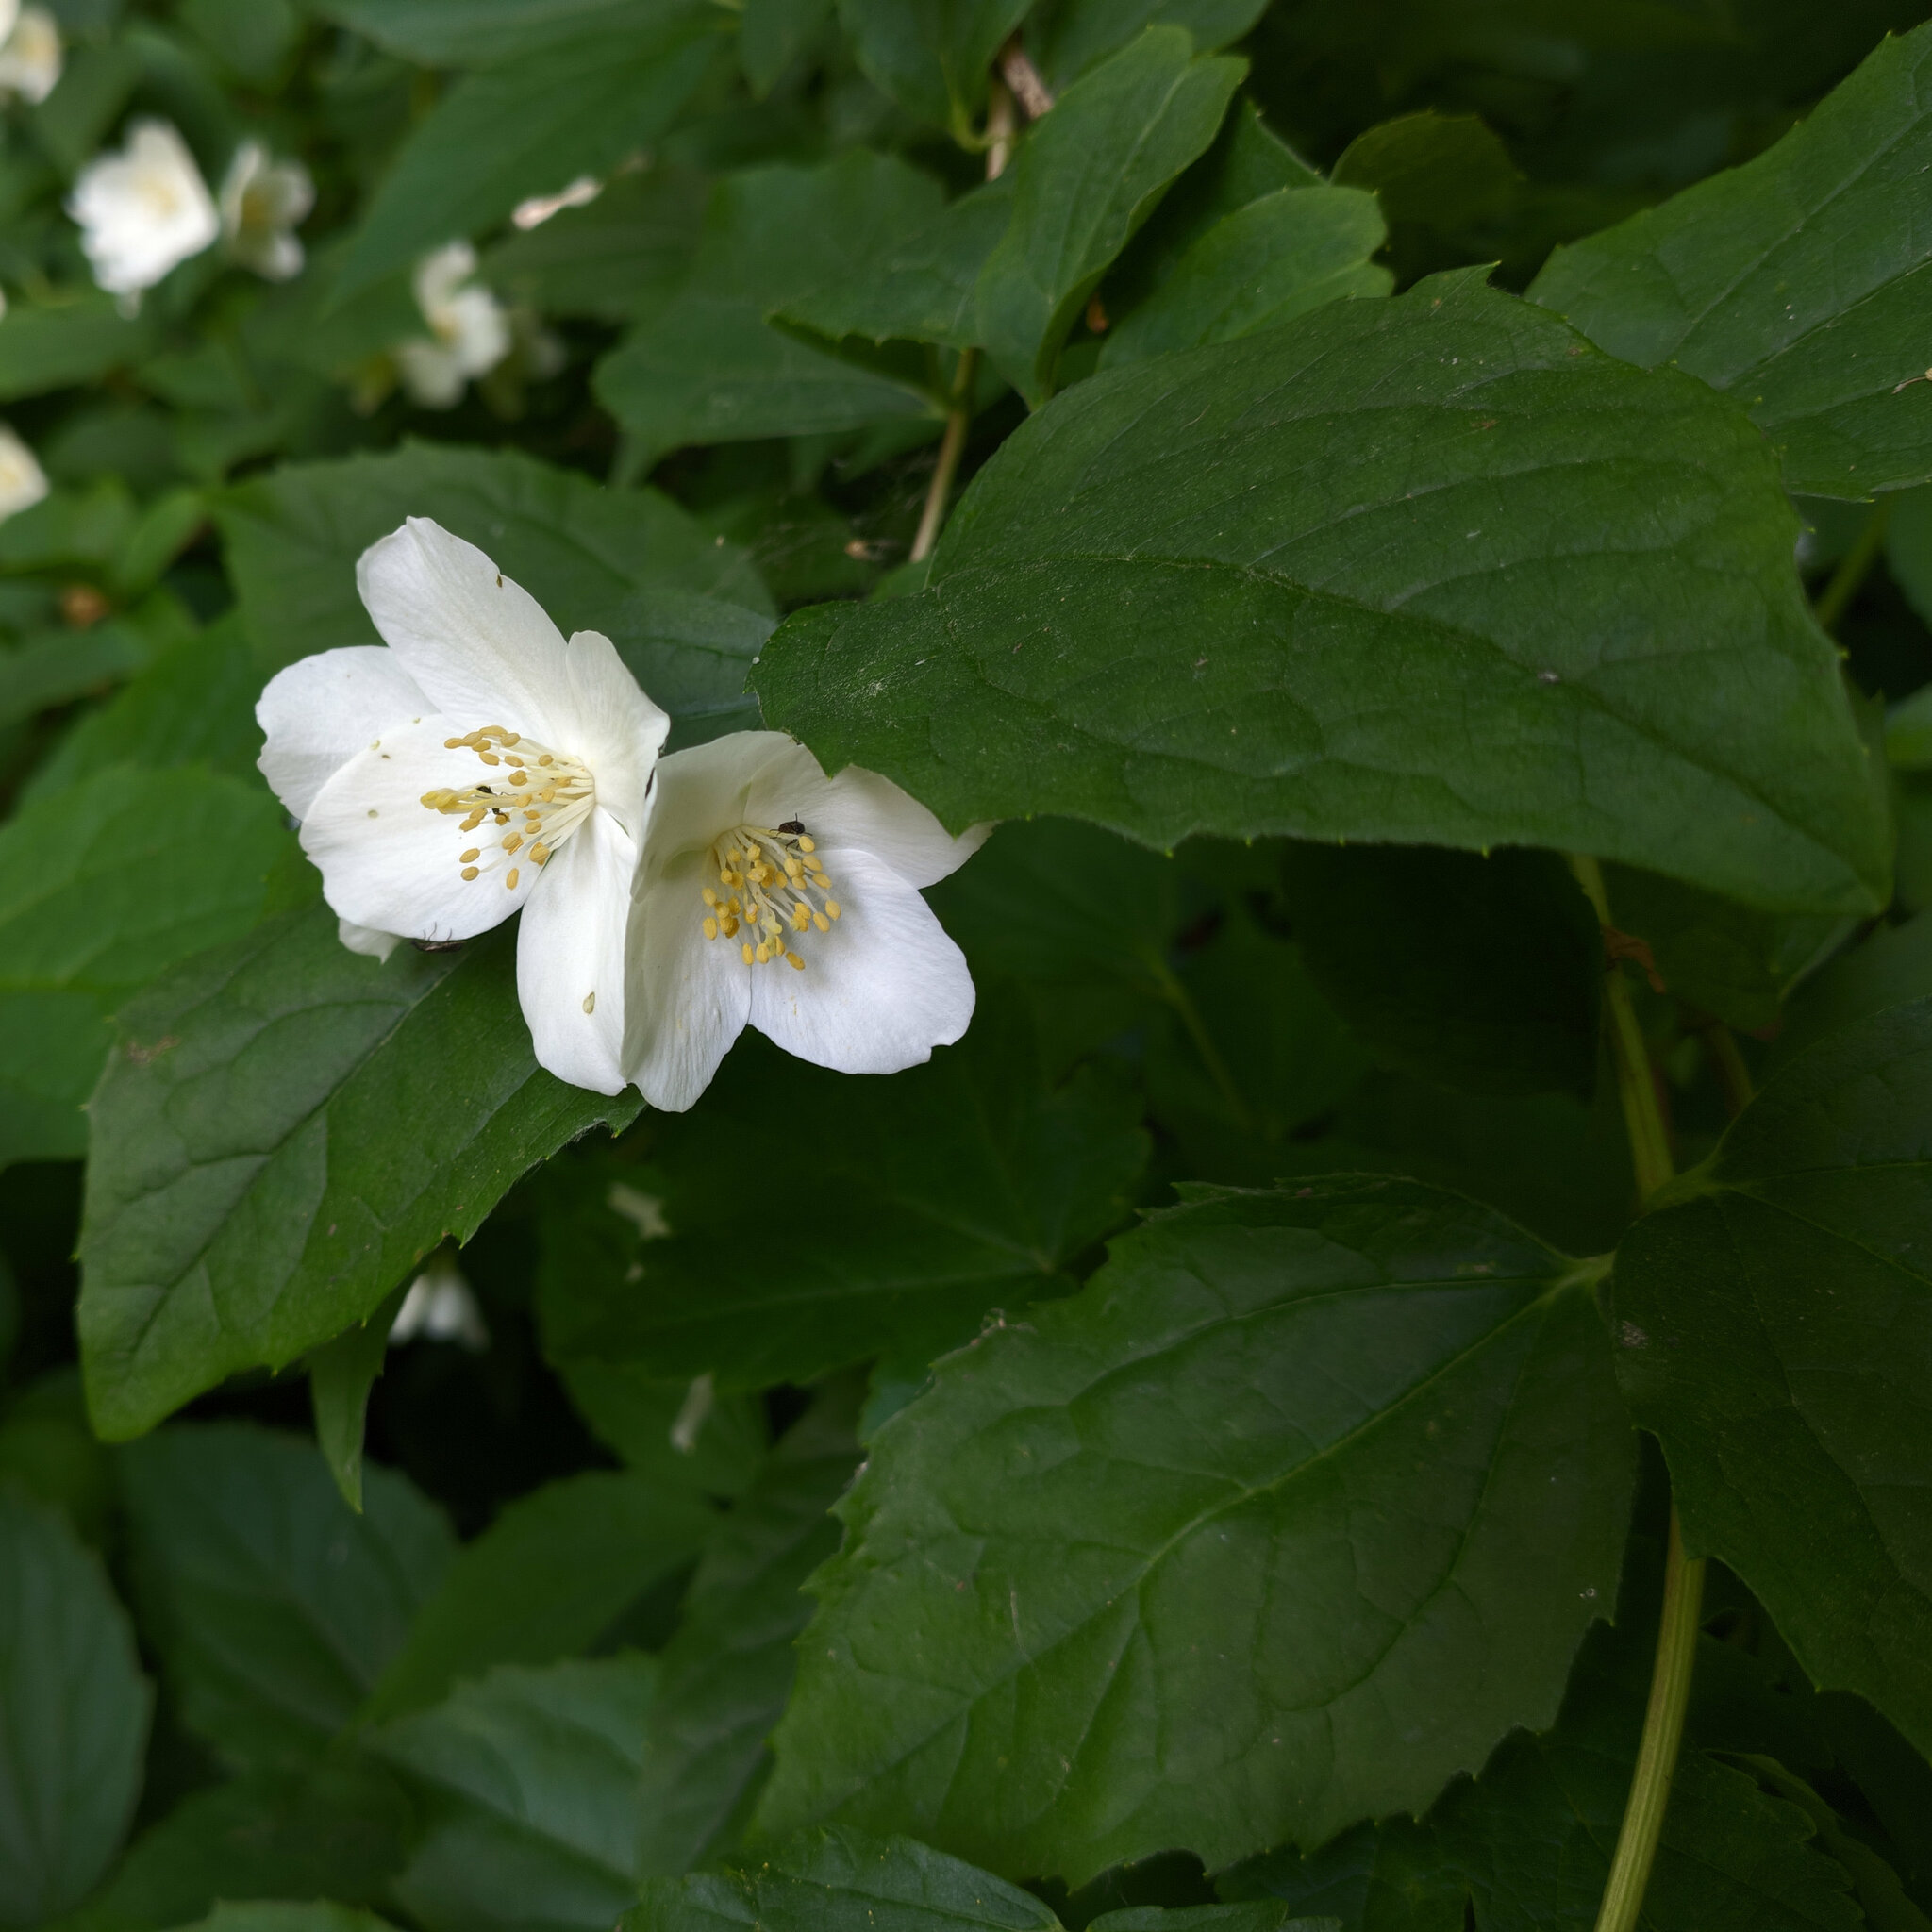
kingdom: Plantae
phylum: Tracheophyta
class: Magnoliopsida
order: Cornales
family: Hydrangeaceae
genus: Philadelphus
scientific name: Philadelphus coronarius
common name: Mock orange
